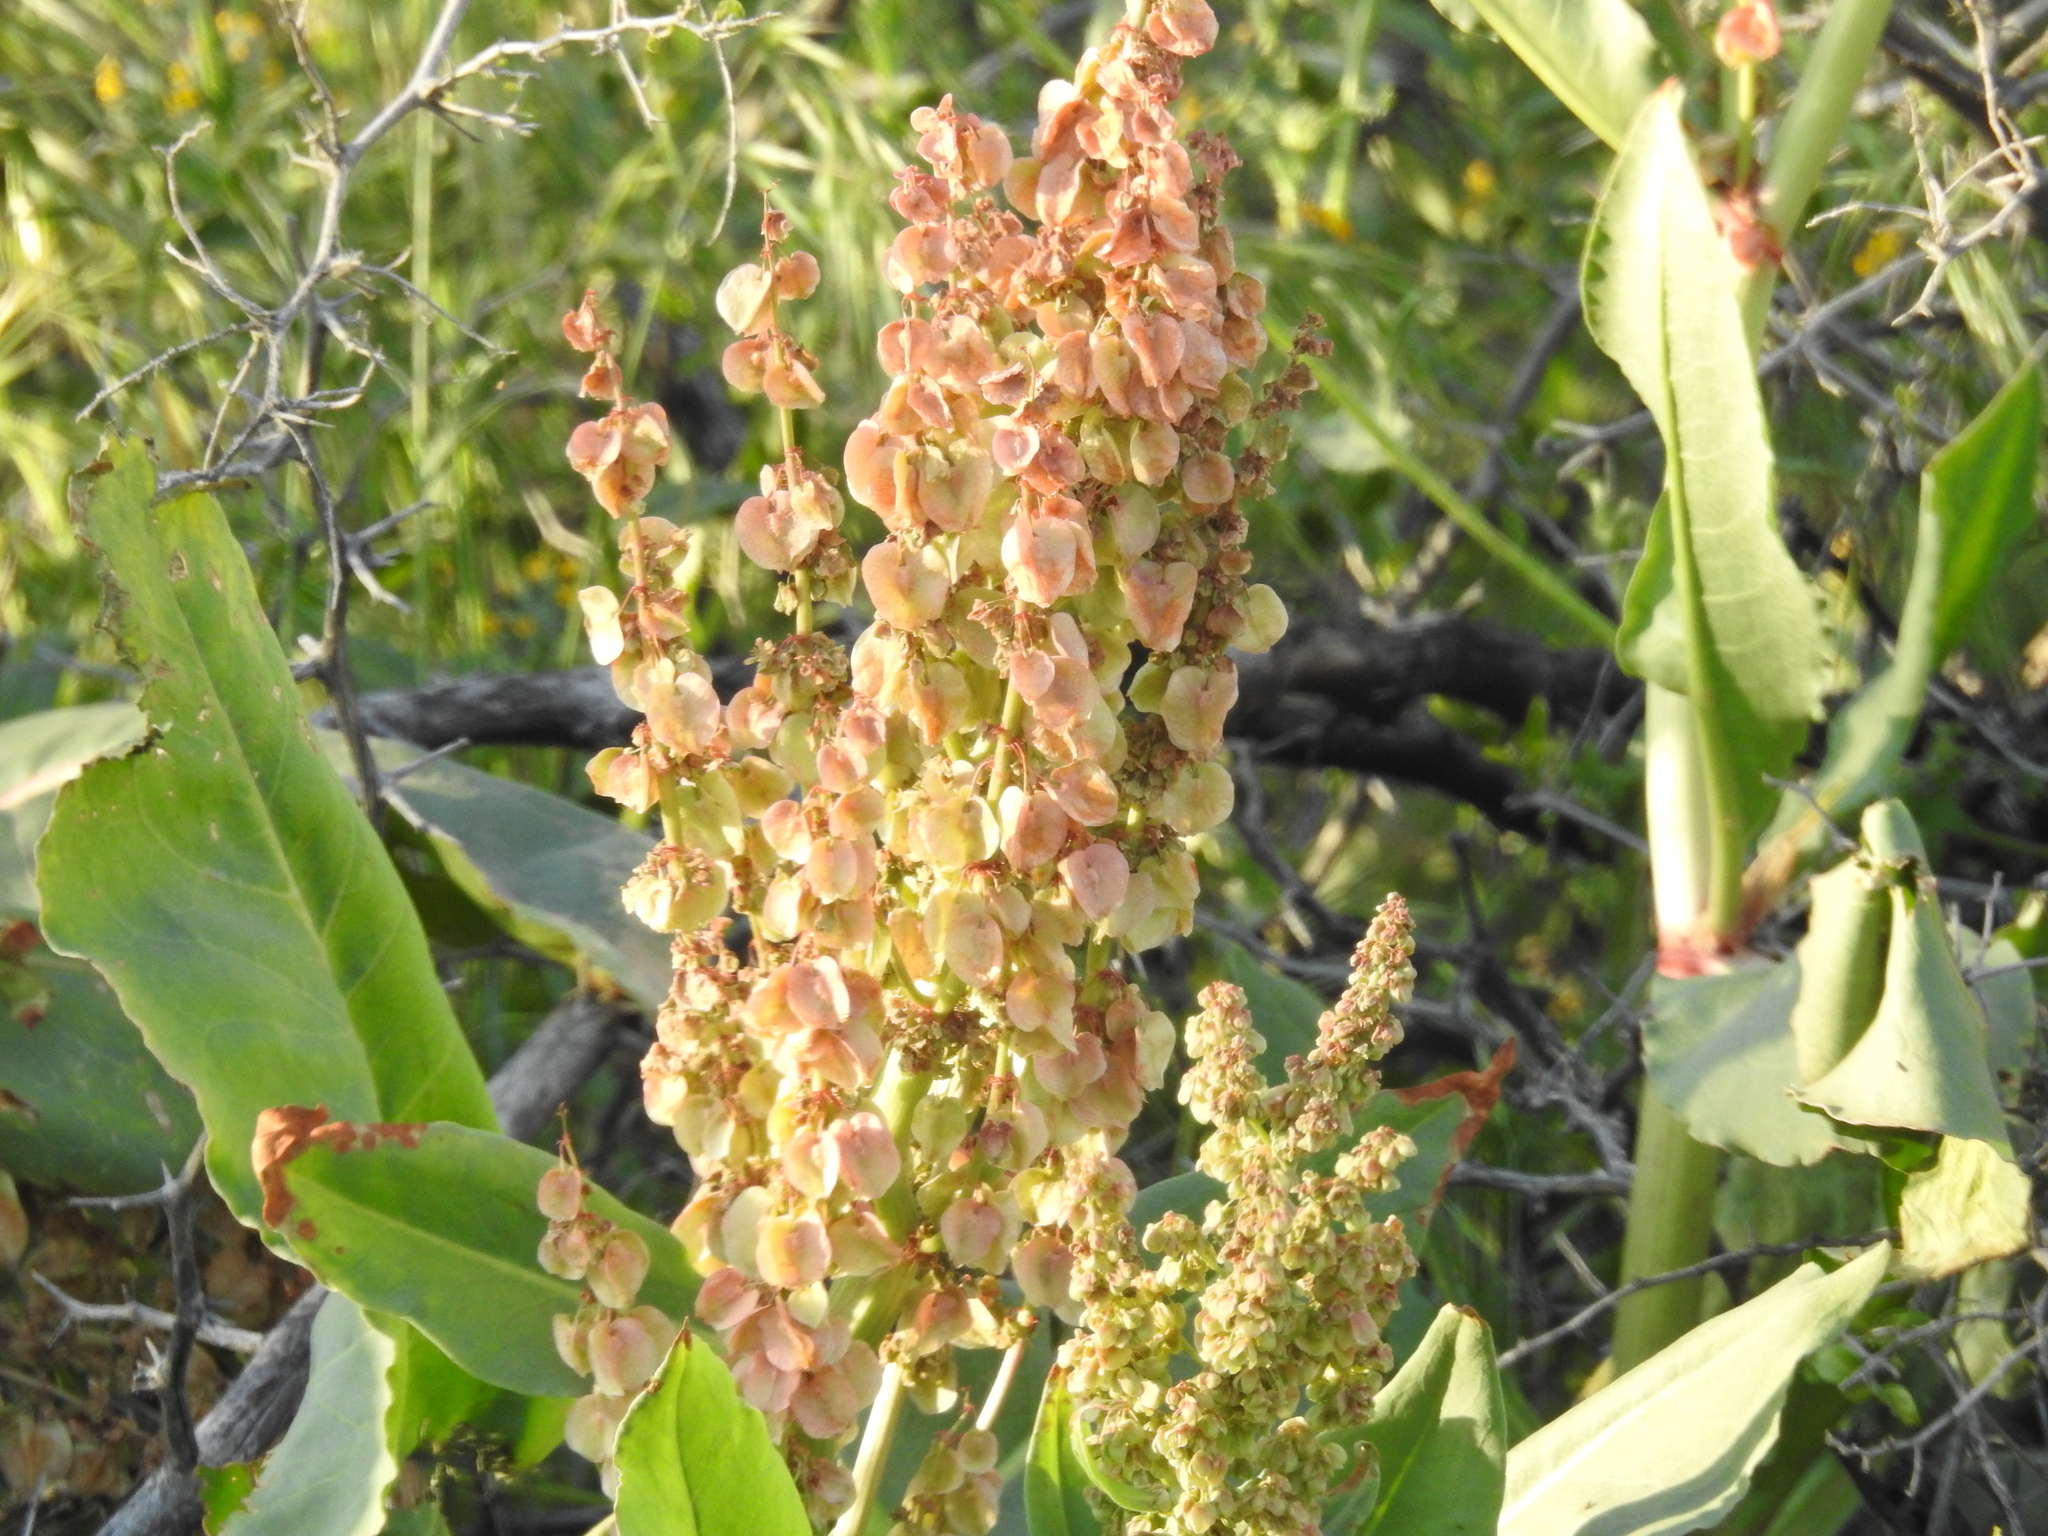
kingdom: Plantae
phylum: Tracheophyta
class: Magnoliopsida
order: Caryophyllales
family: Polygonaceae
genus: Rumex
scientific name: Rumex hymenosepalus
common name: Ganagra
